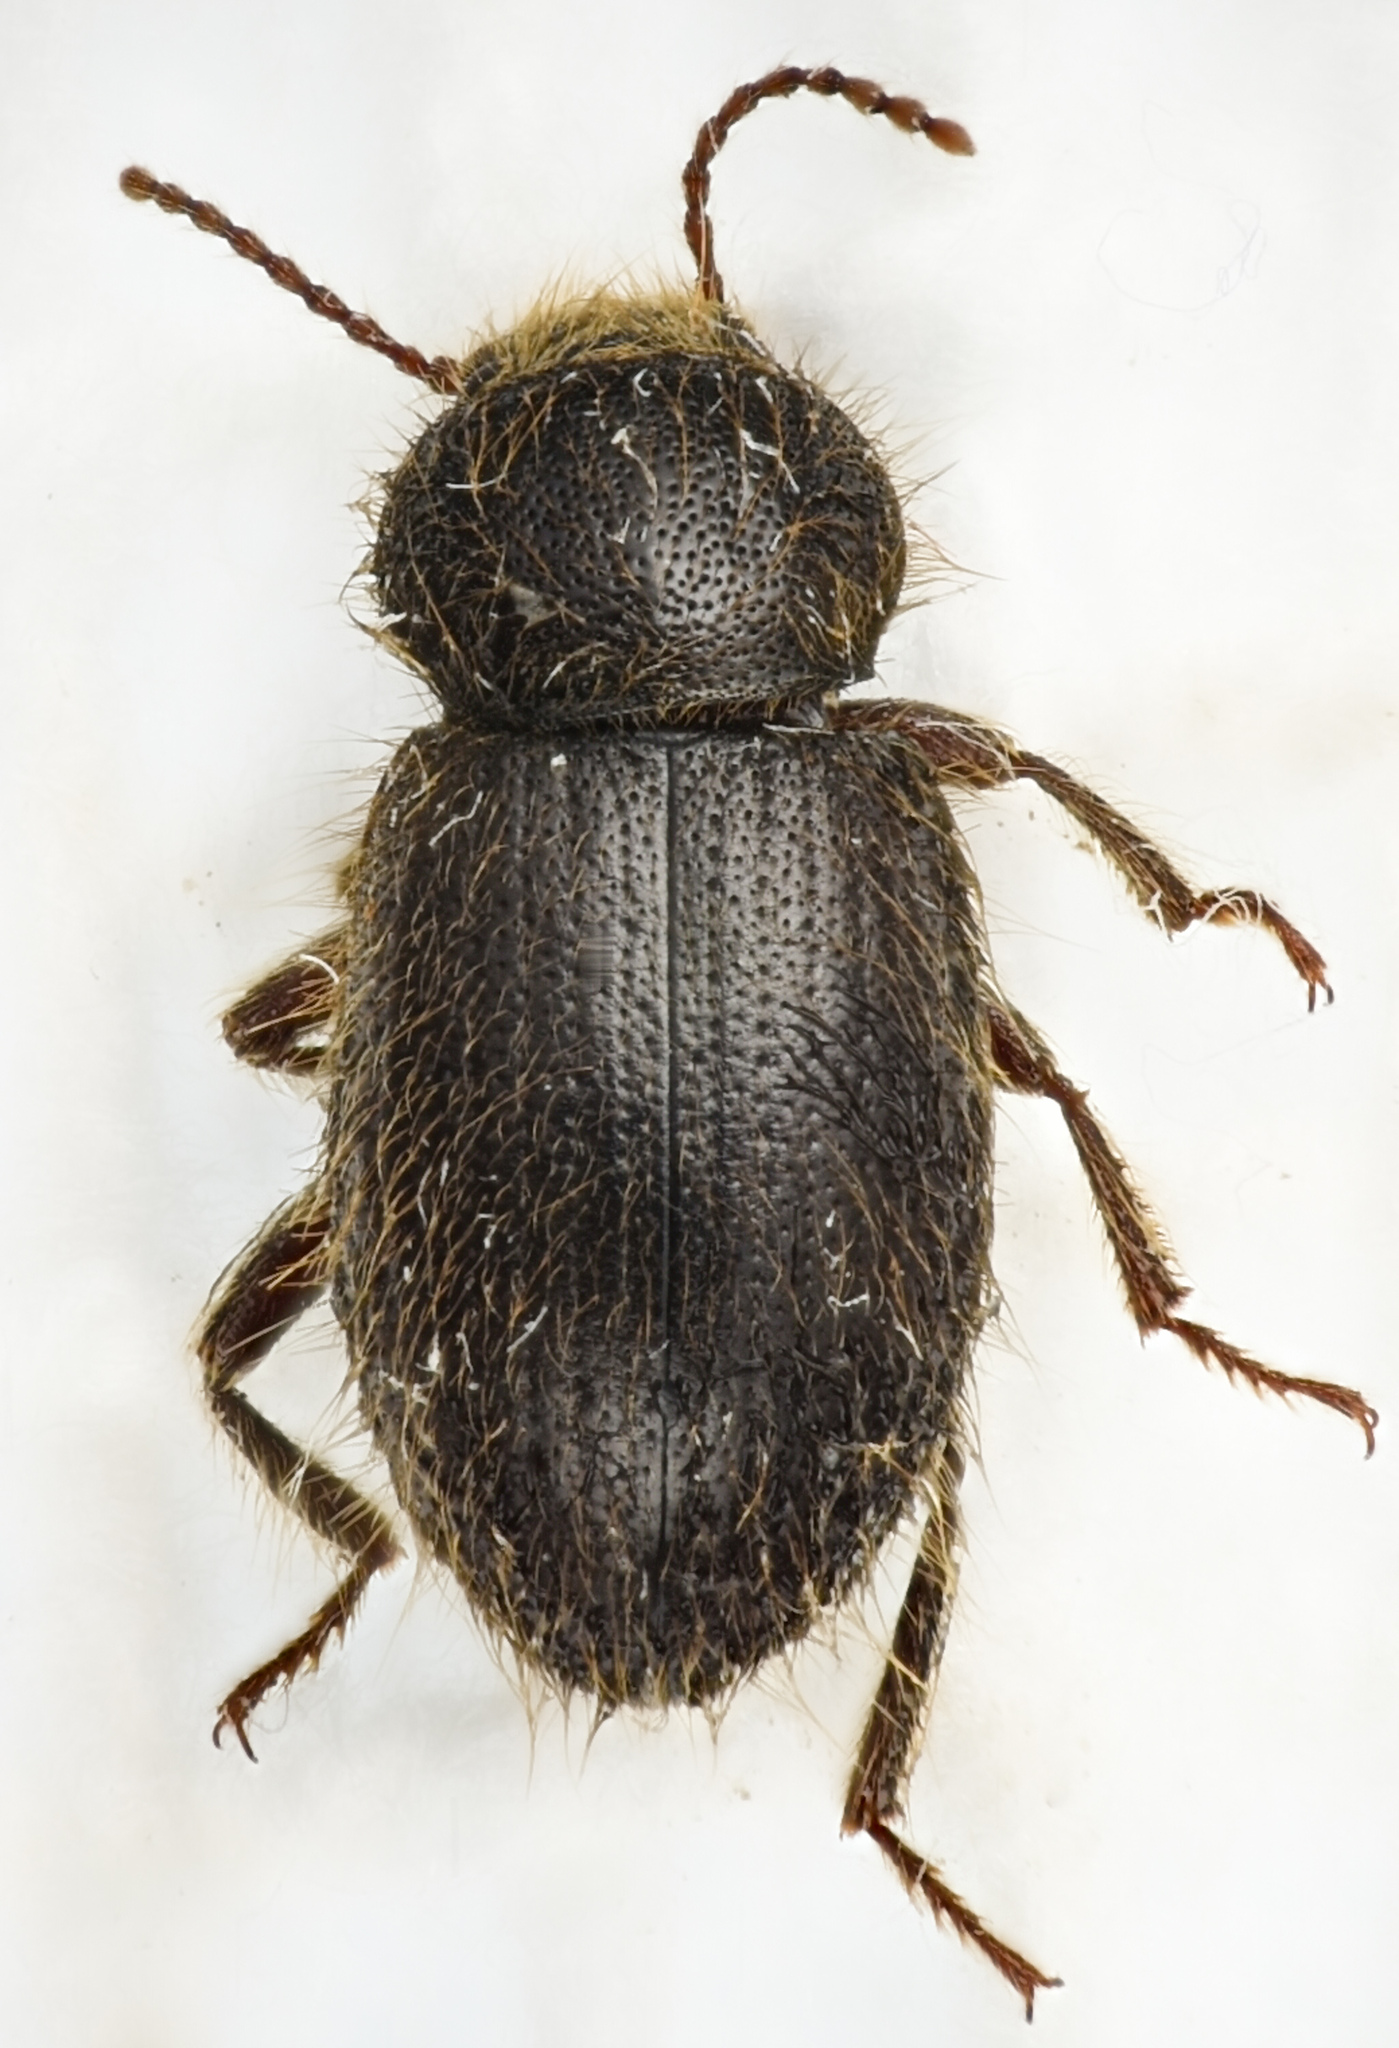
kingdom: Animalia
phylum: Arthropoda
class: Insecta
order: Coleoptera
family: Tenebrionidae
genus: Eleodes
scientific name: Eleodes littoralis
